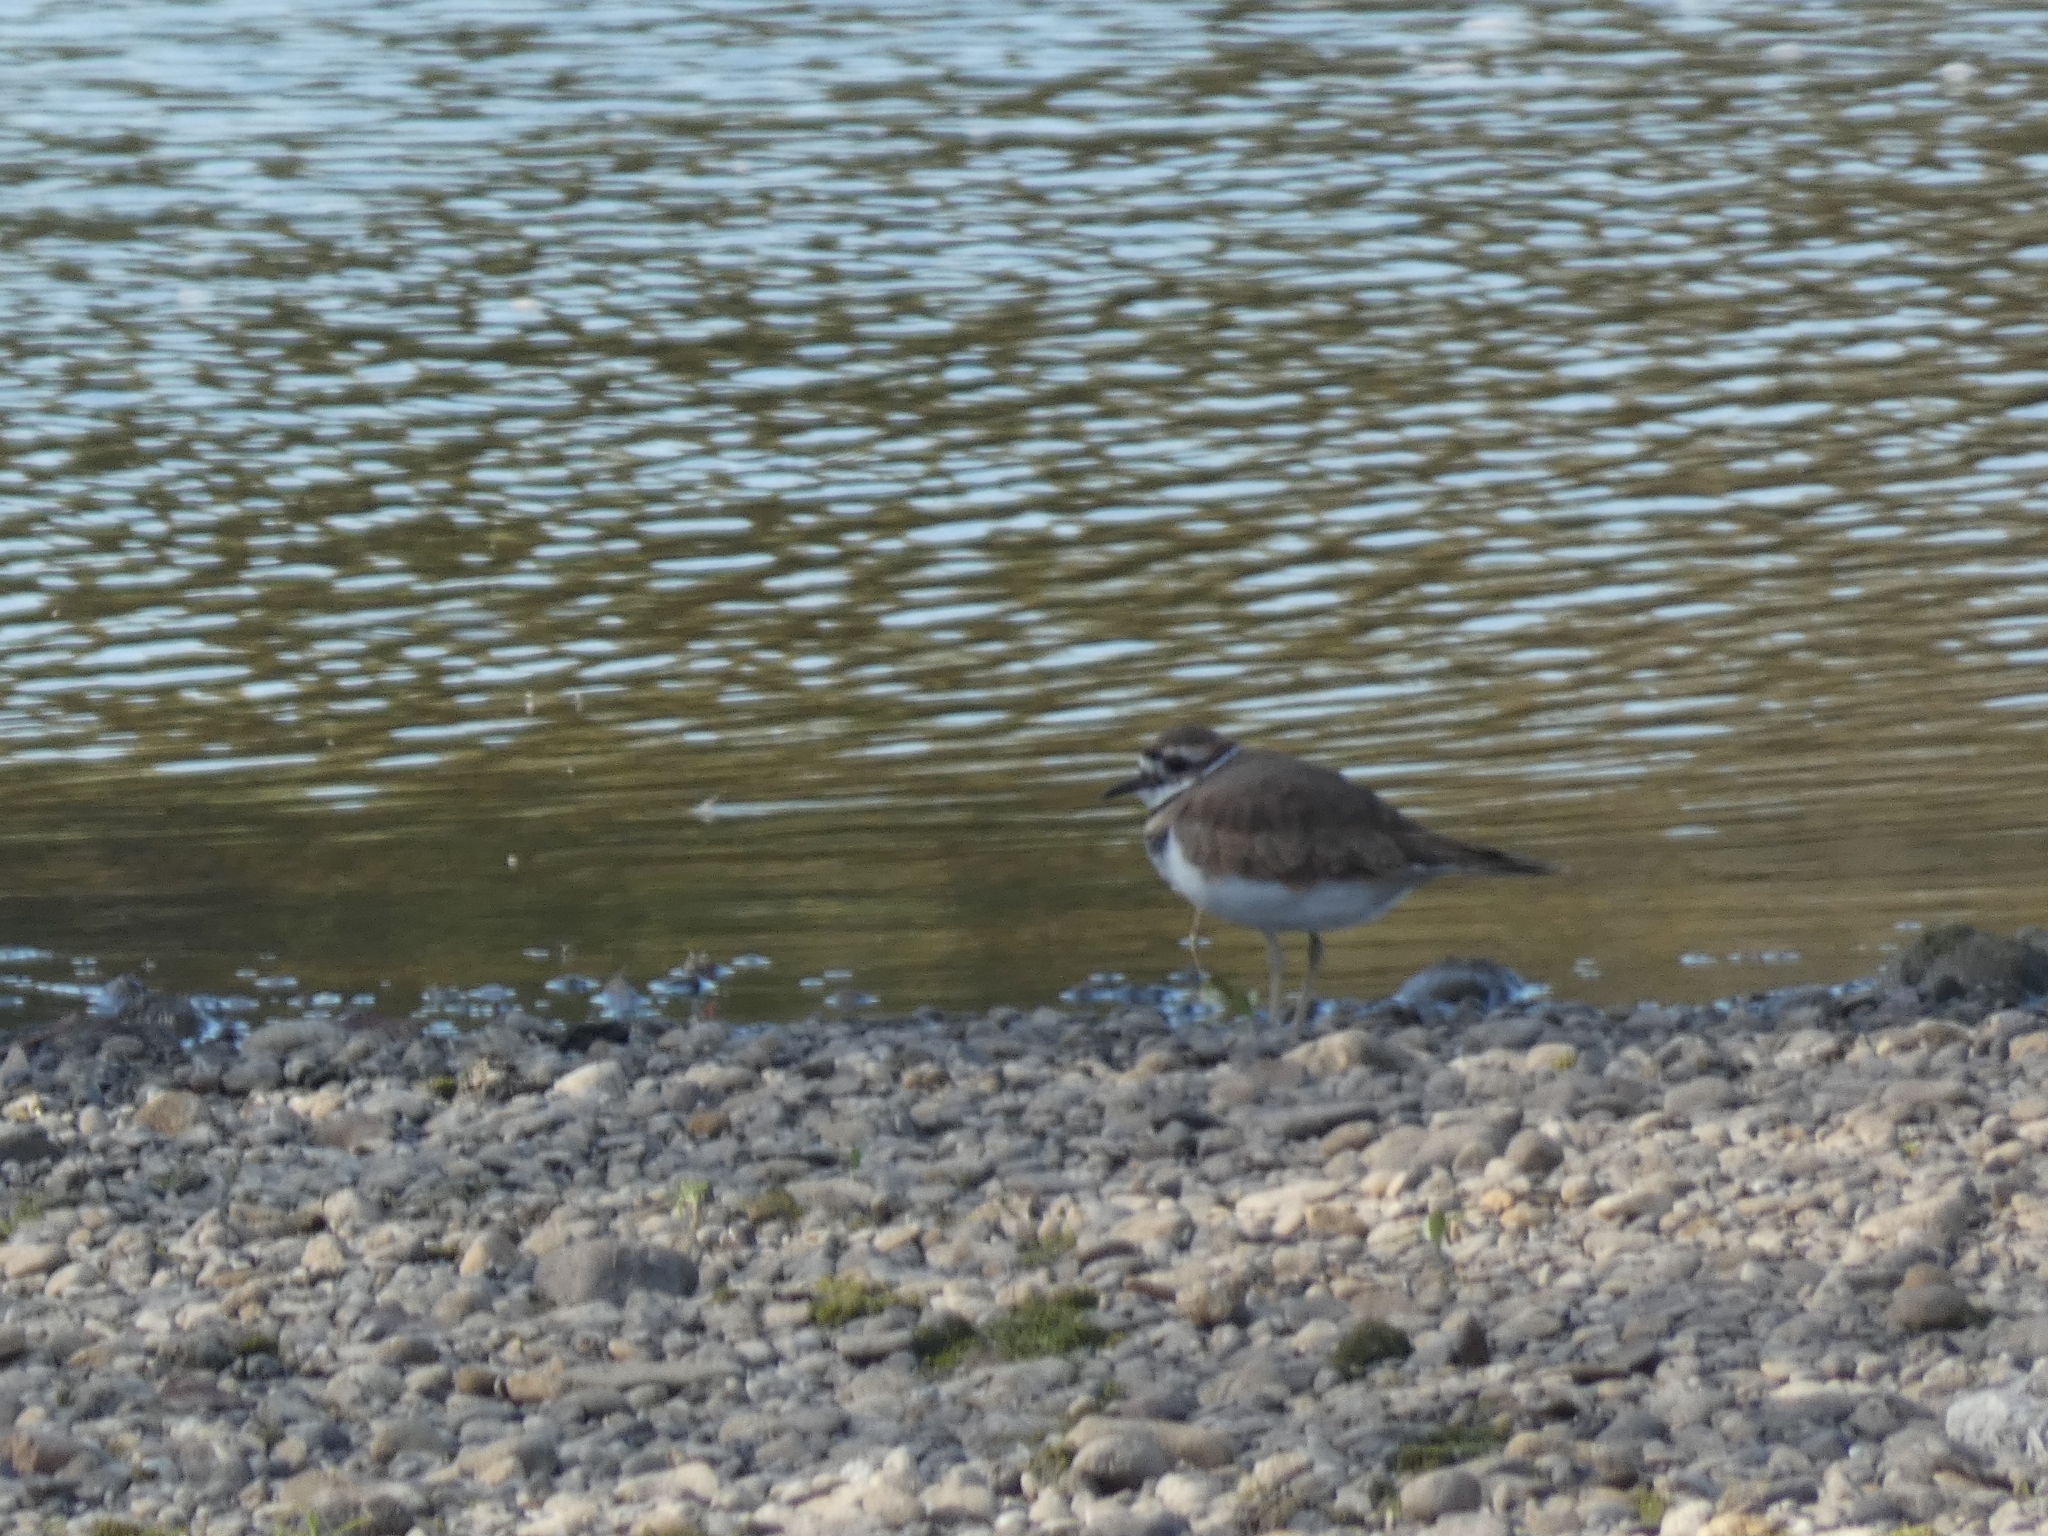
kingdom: Animalia
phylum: Chordata
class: Aves
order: Charadriiformes
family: Charadriidae
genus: Charadrius
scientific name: Charadrius vociferus
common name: Killdeer
